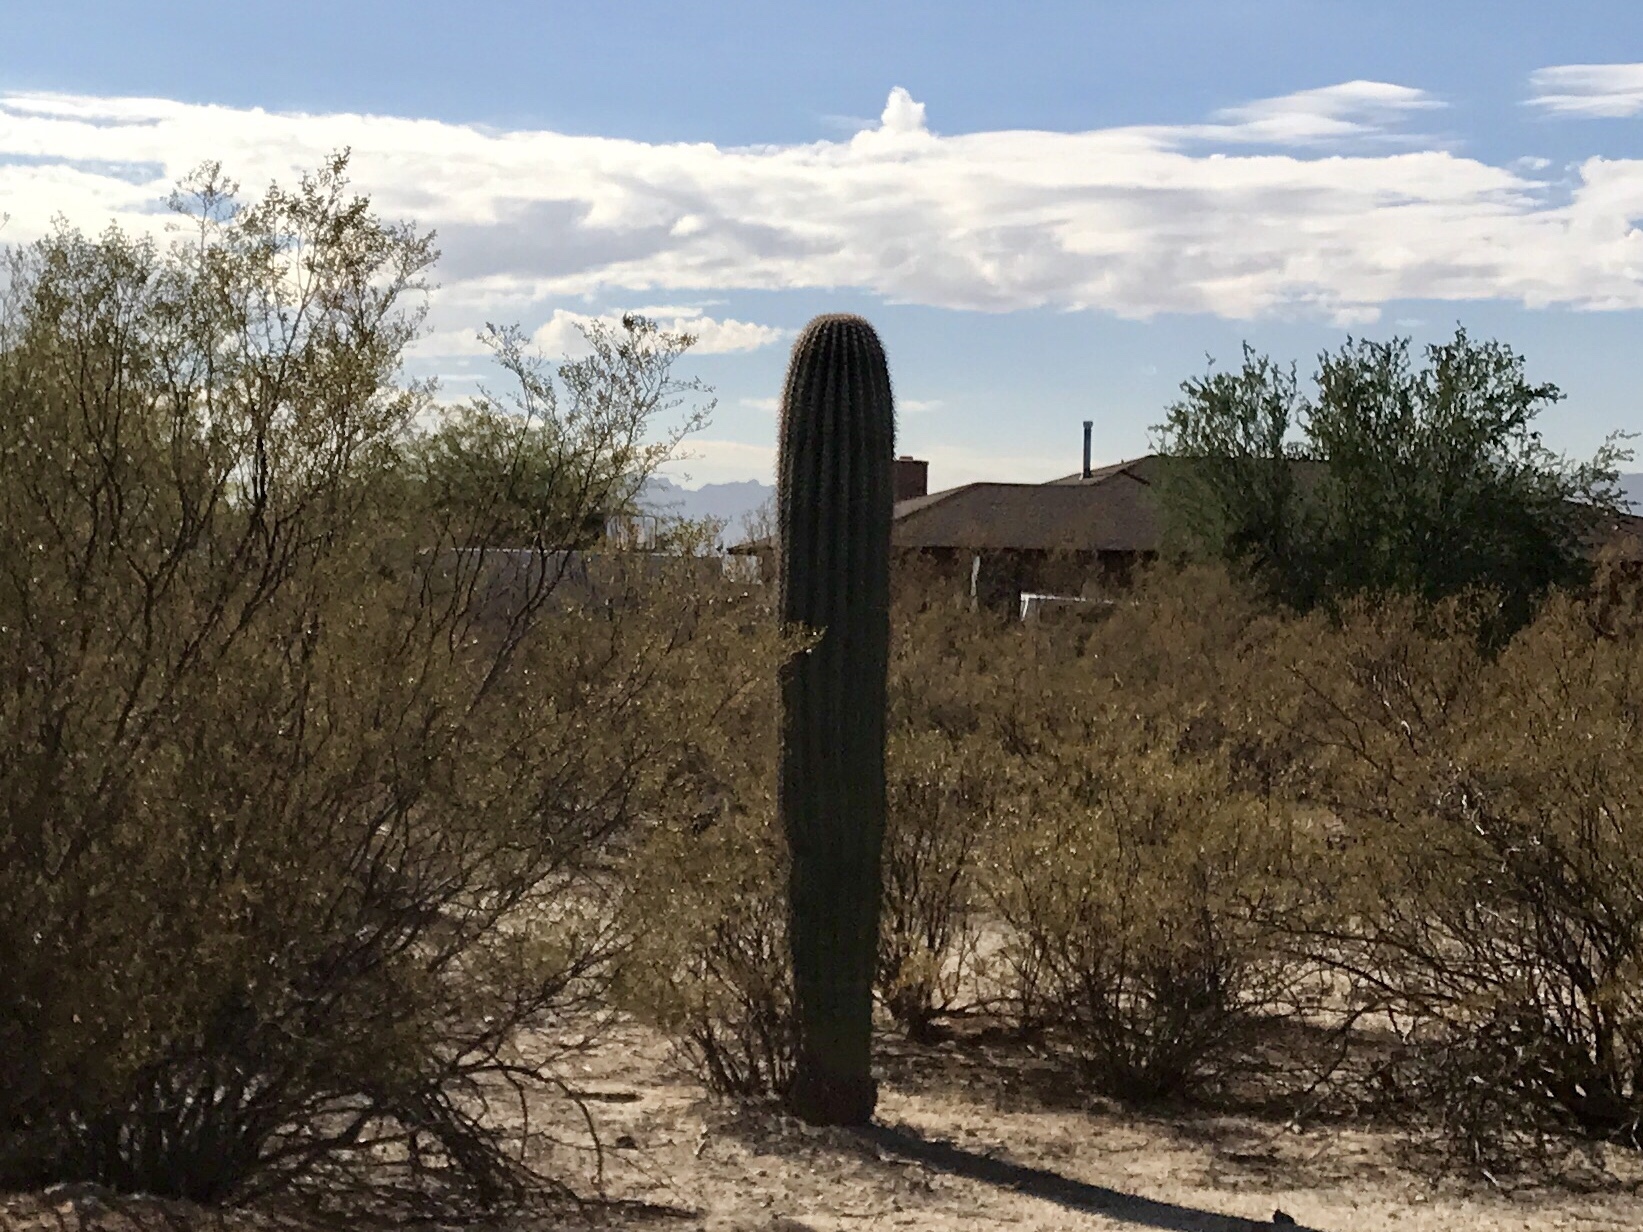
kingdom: Plantae
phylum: Tracheophyta
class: Magnoliopsida
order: Caryophyllales
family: Cactaceae
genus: Carnegiea
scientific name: Carnegiea gigantea
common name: Saguaro
